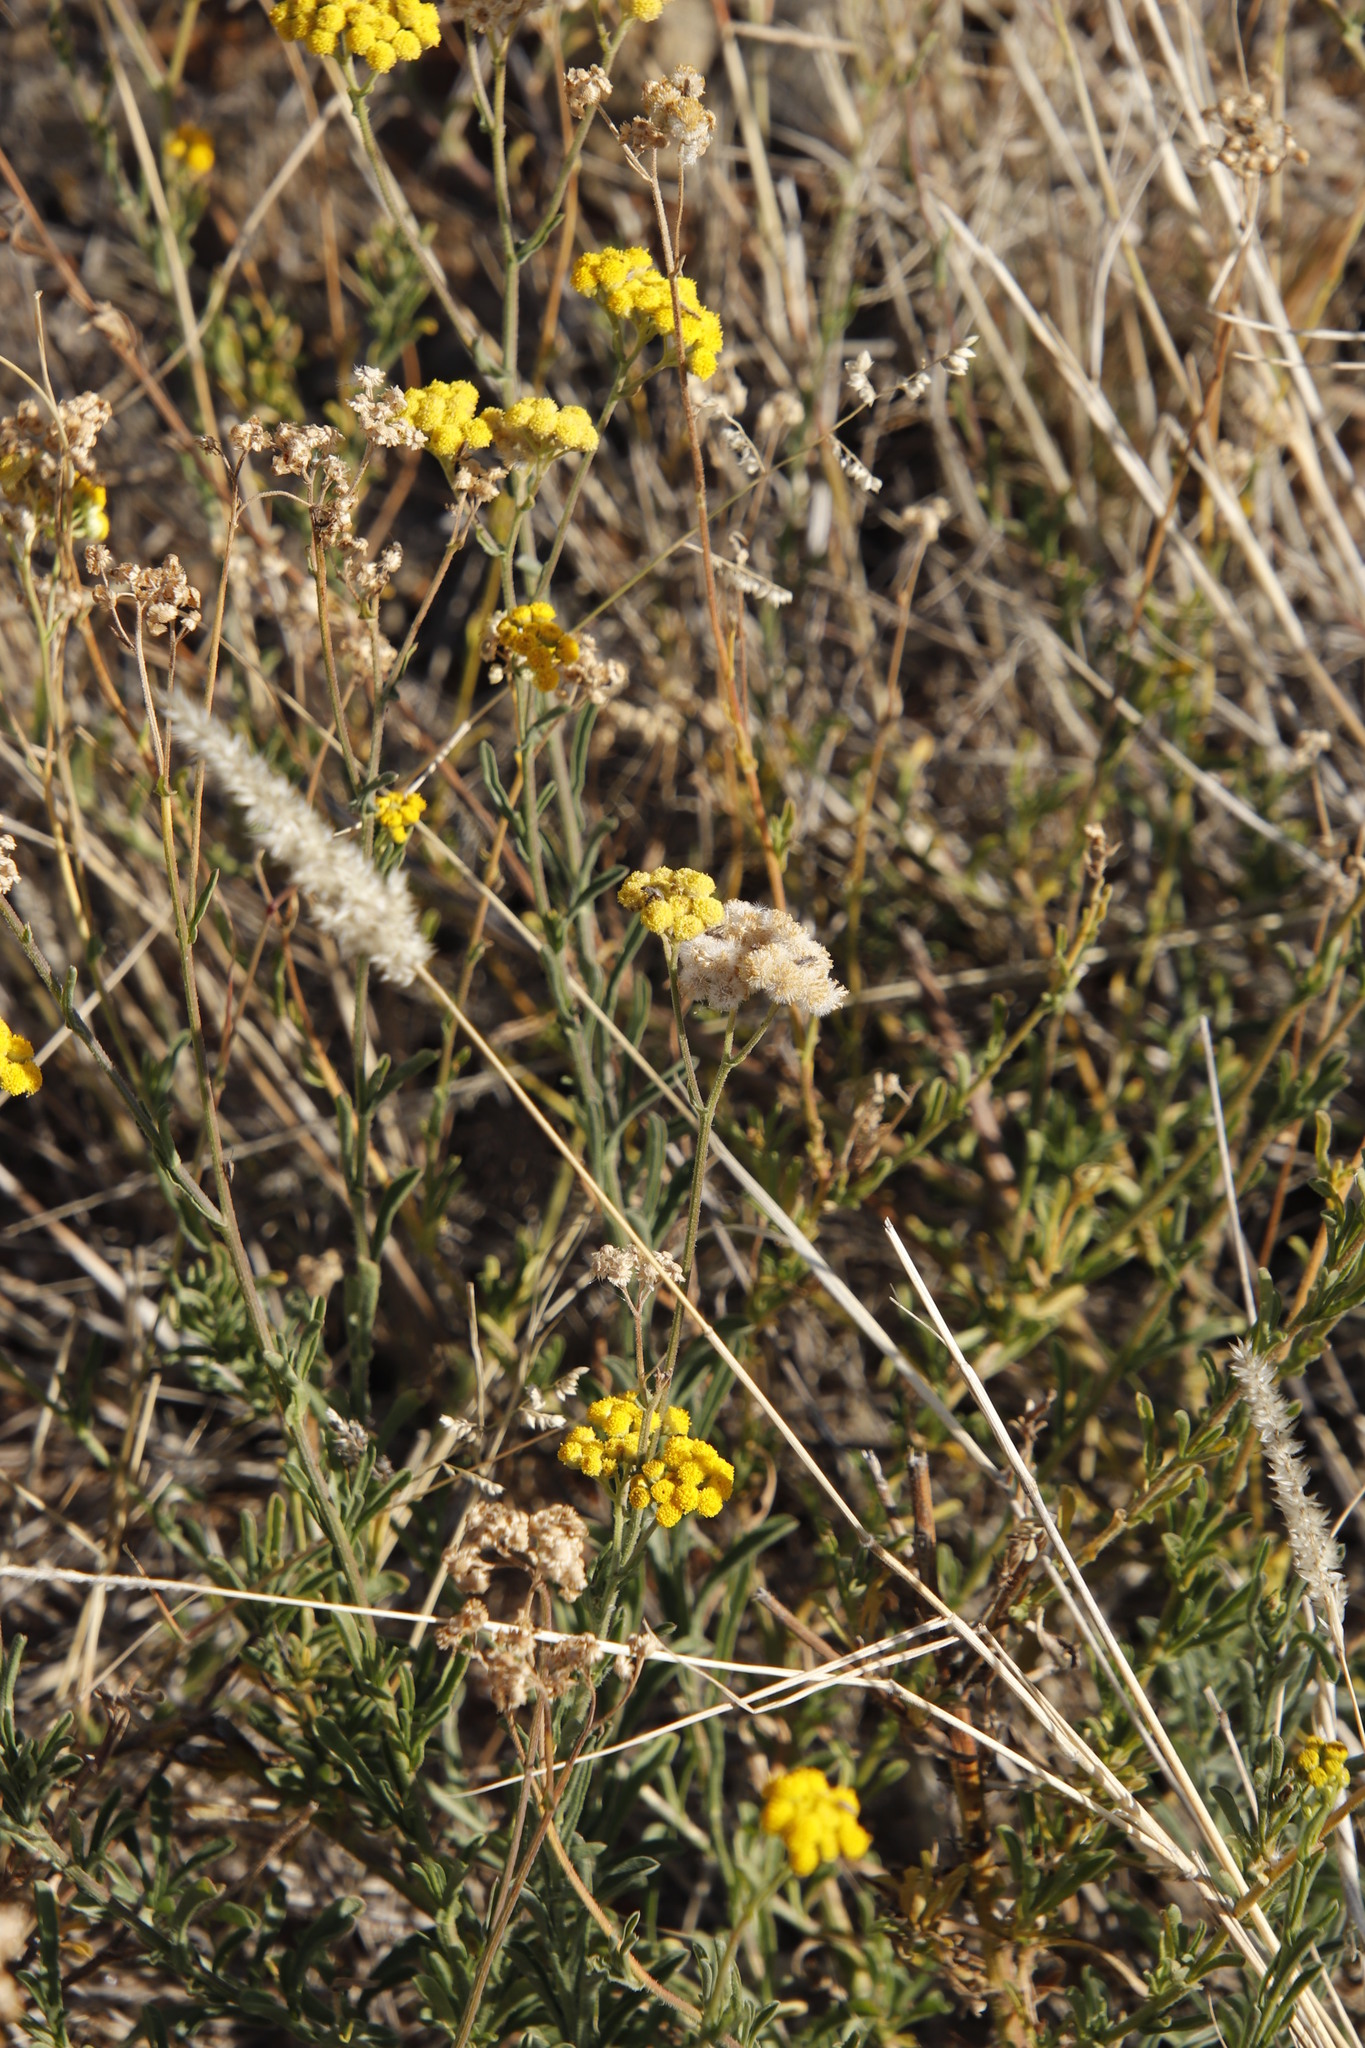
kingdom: Plantae
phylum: Tracheophyta
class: Magnoliopsida
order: Asterales
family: Asteraceae
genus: Nidorella
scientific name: Nidorella resedifolia
